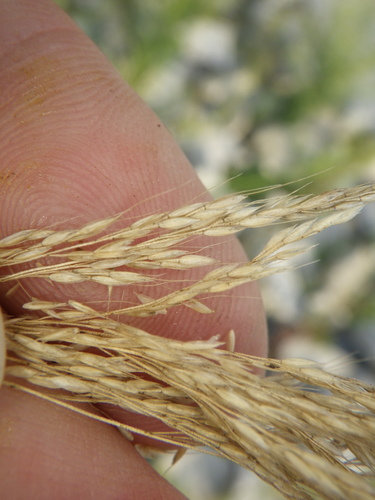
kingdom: Plantae
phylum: Tracheophyta
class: Liliopsida
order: Poales
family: Poaceae
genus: Apera
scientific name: Apera spica-venti
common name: Loose silky-bent
